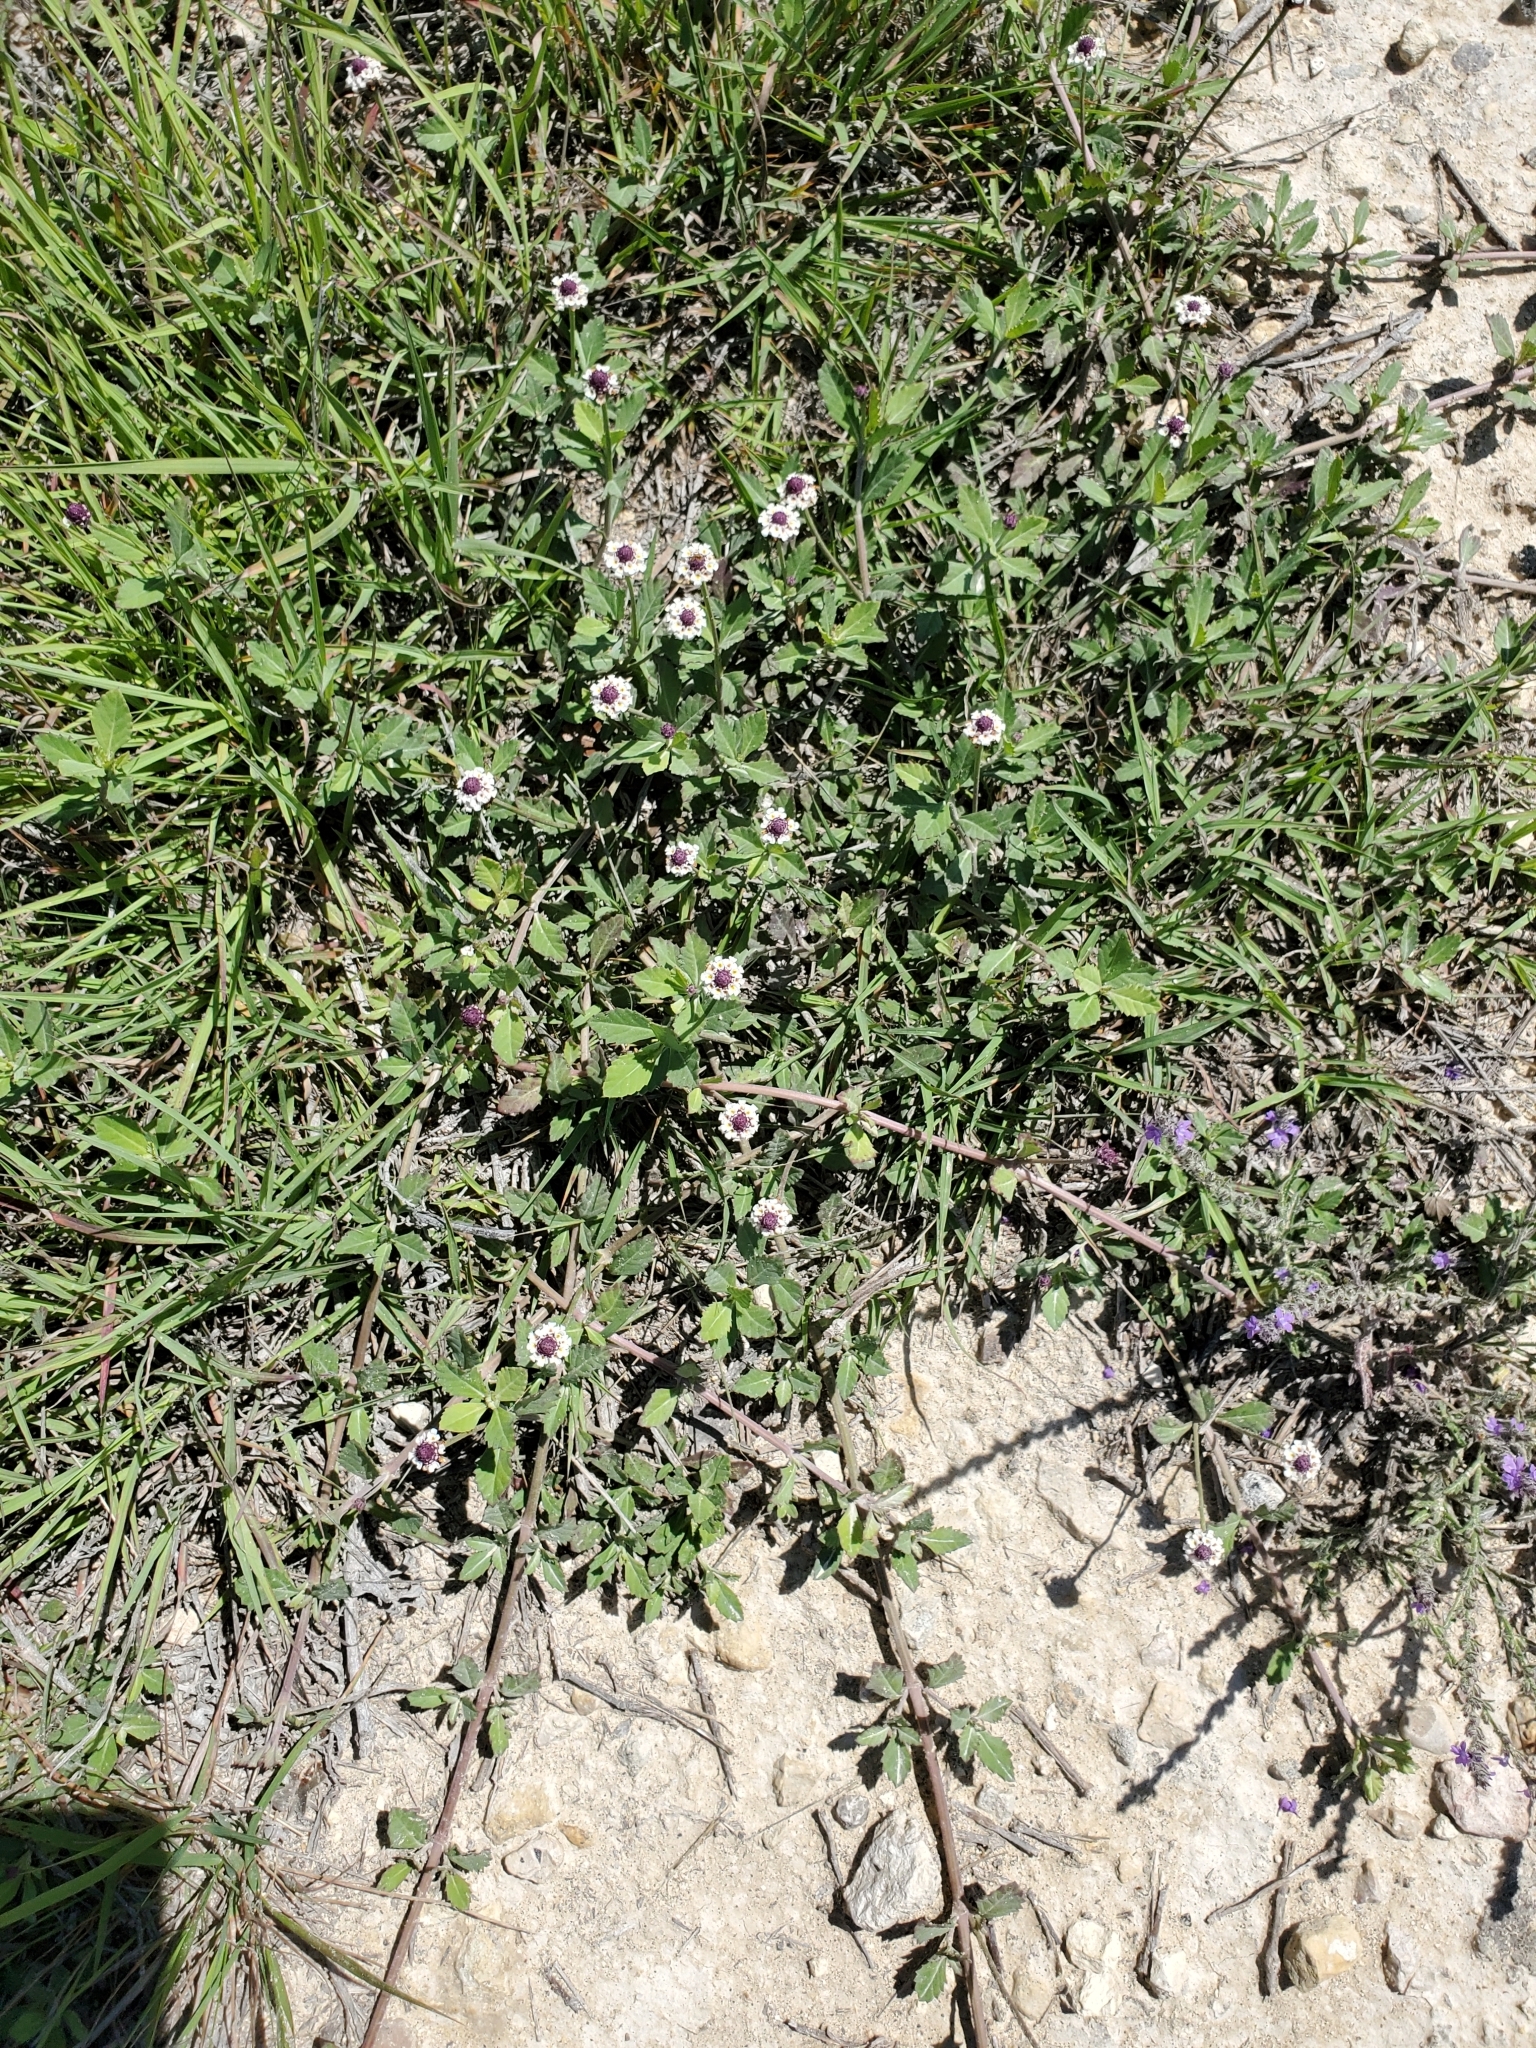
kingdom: Plantae
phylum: Tracheophyta
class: Magnoliopsida
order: Lamiales
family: Verbenaceae
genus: Phyla
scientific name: Phyla nodiflora
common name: Frogfruit
